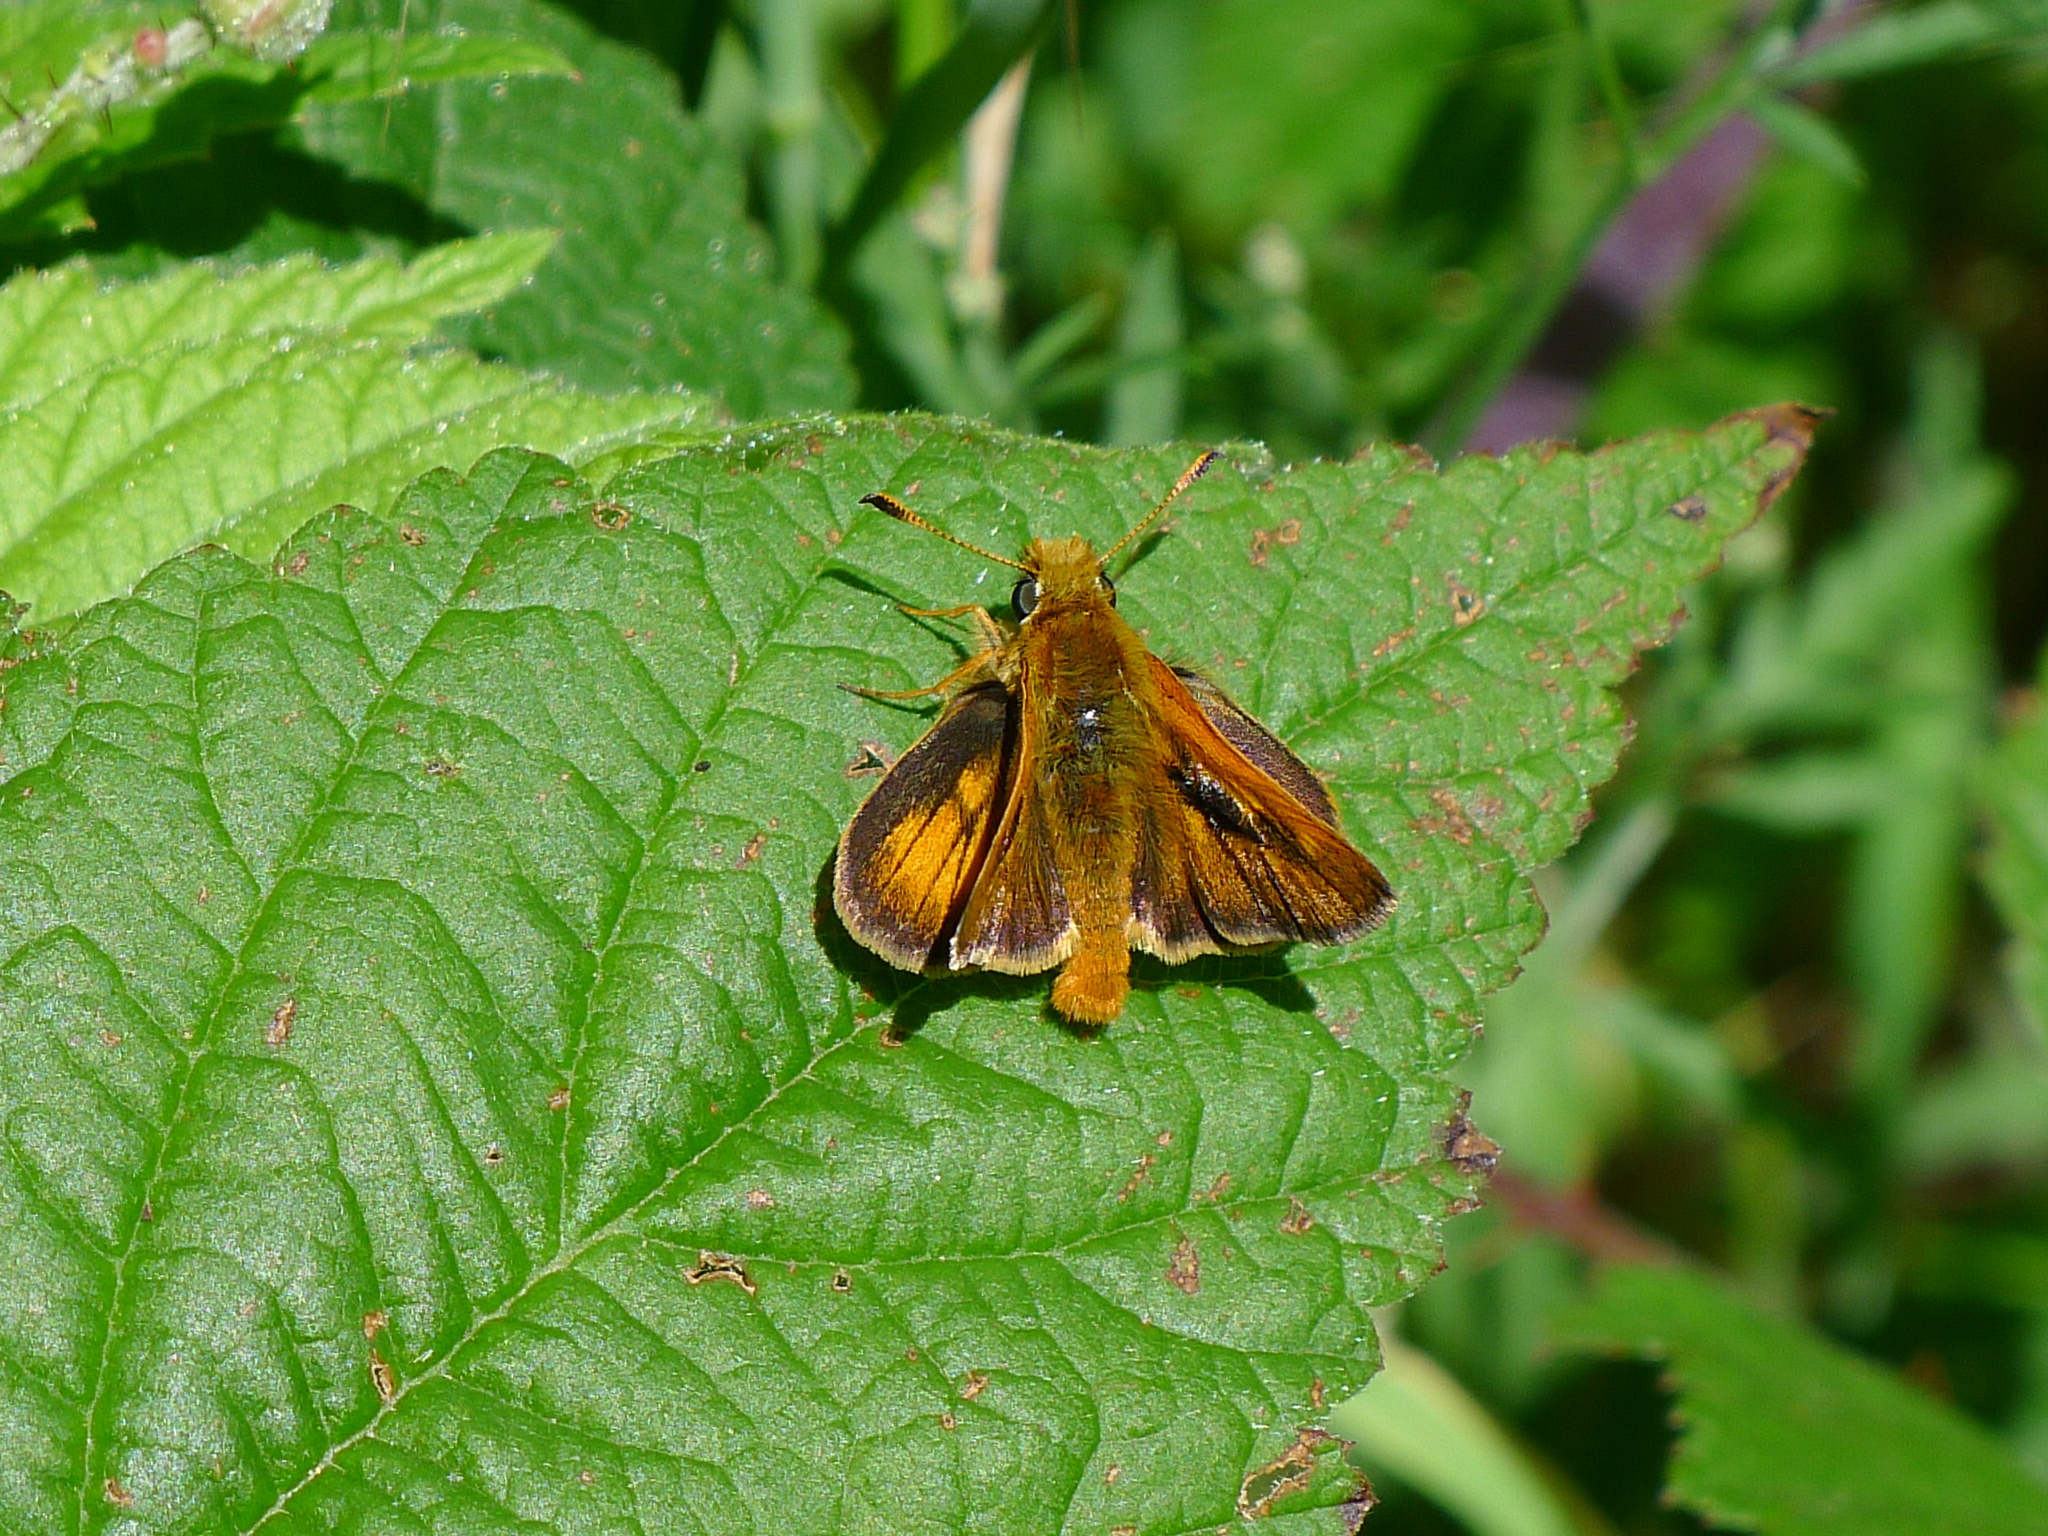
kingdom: Animalia
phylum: Arthropoda
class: Insecta
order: Lepidoptera
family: Hesperiidae
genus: Ochlodes
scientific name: Ochlodes agricola
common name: Rural skipper
